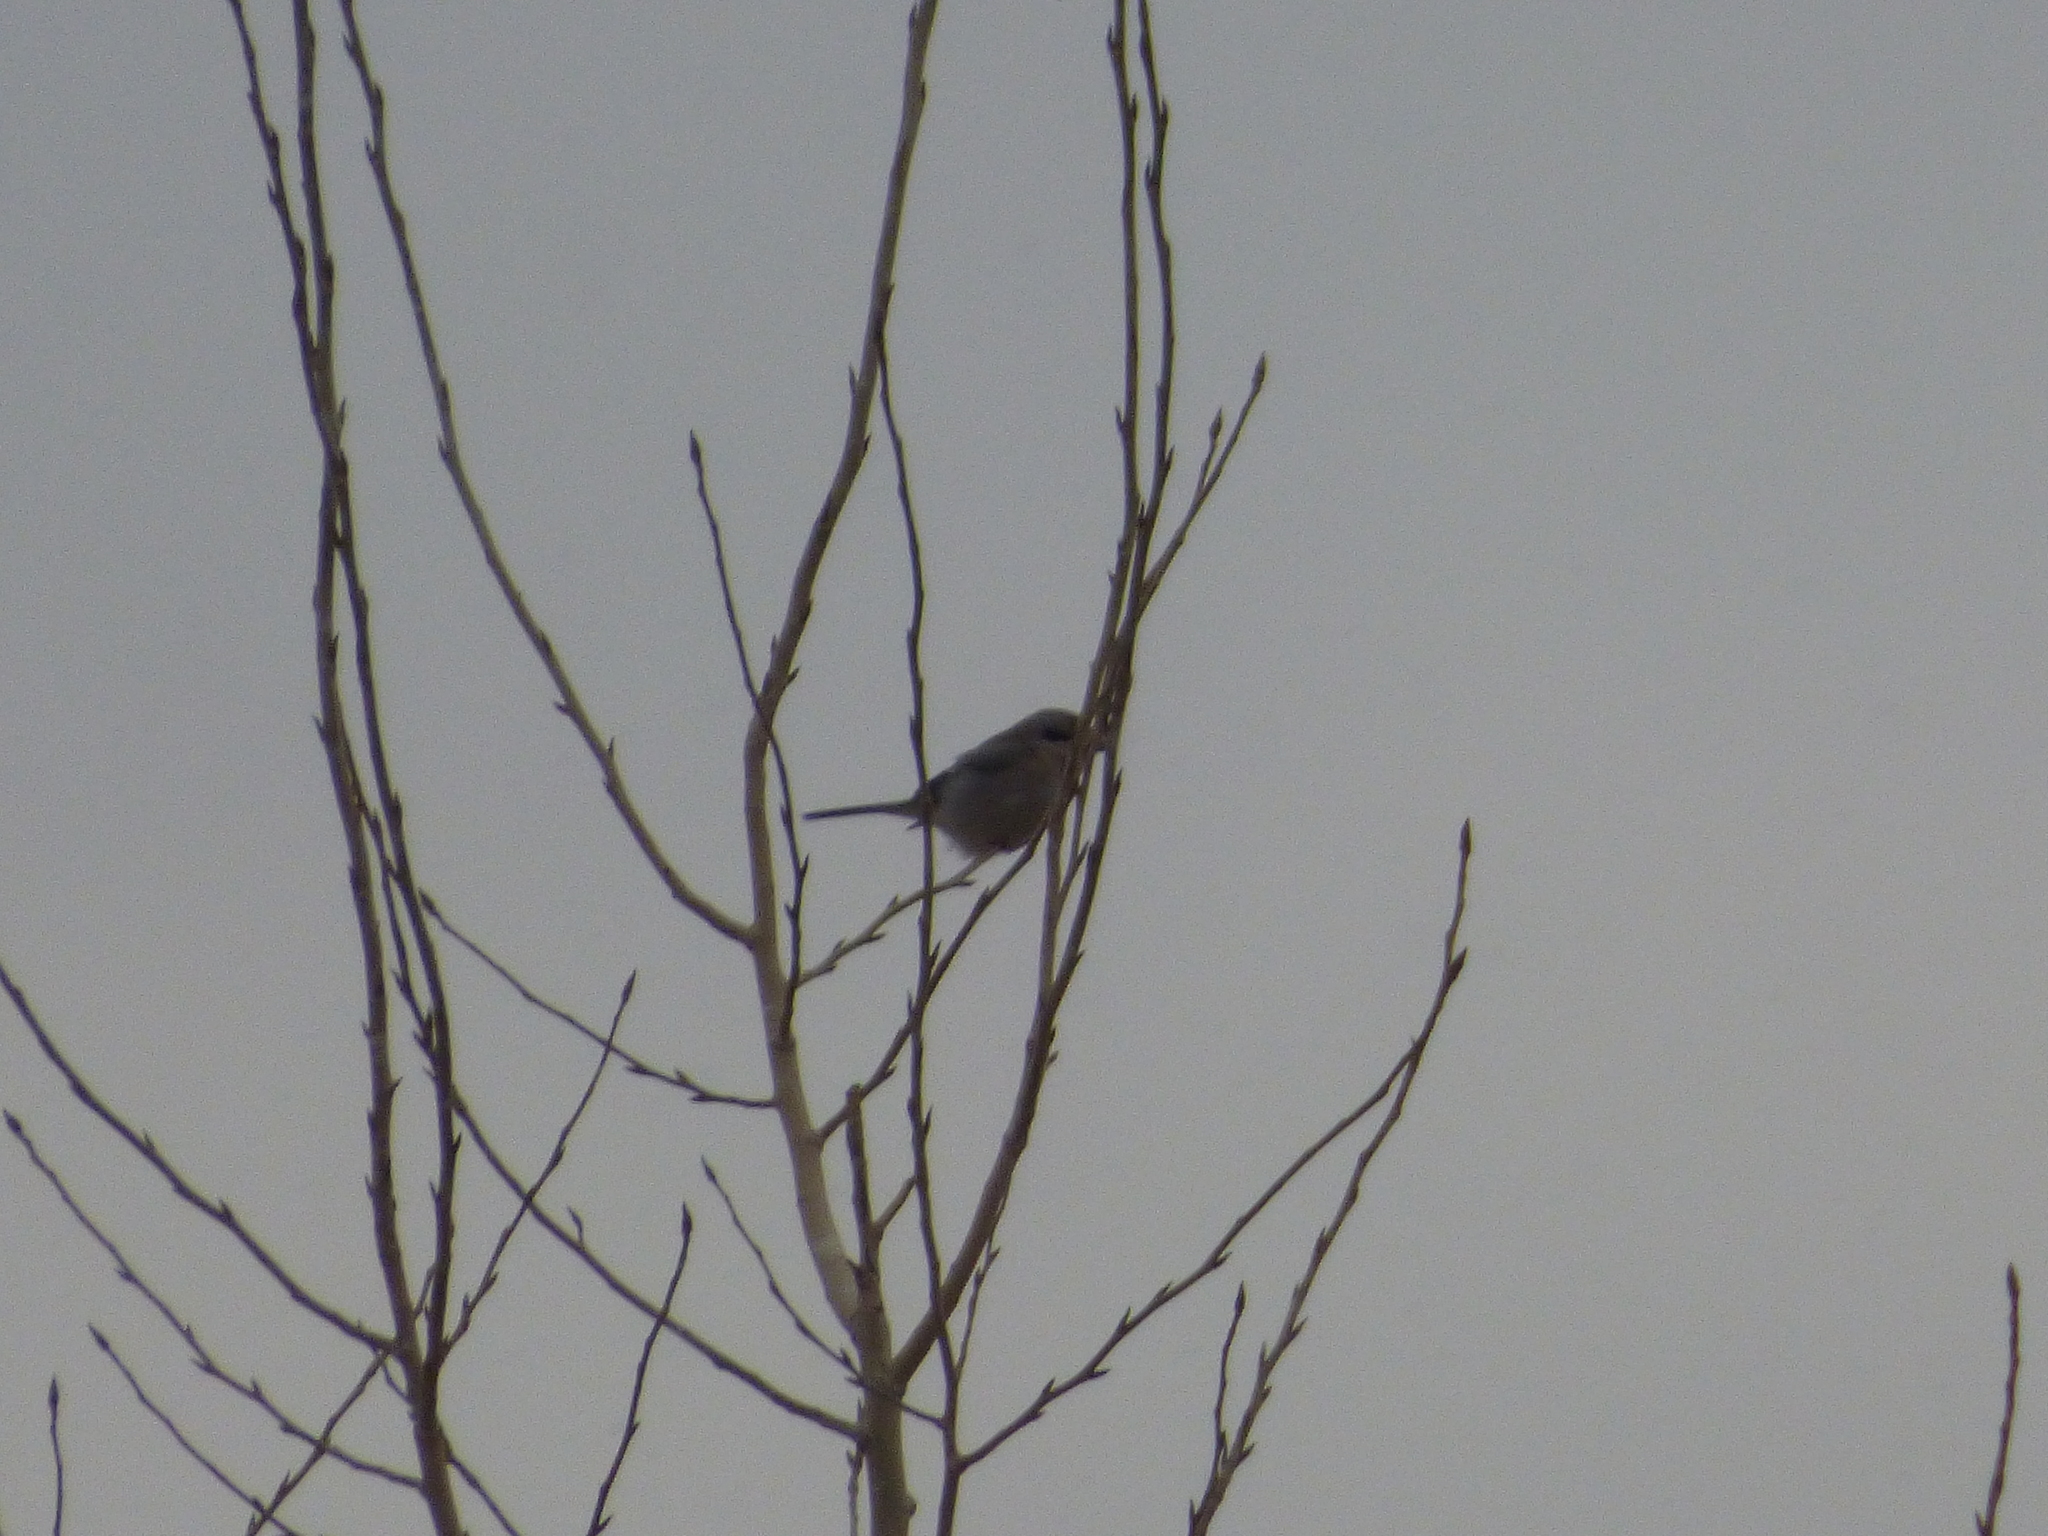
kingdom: Animalia
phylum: Chordata
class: Aves
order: Passeriformes
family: Laniidae
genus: Lanius
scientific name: Lanius borealis
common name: Northern shrike
